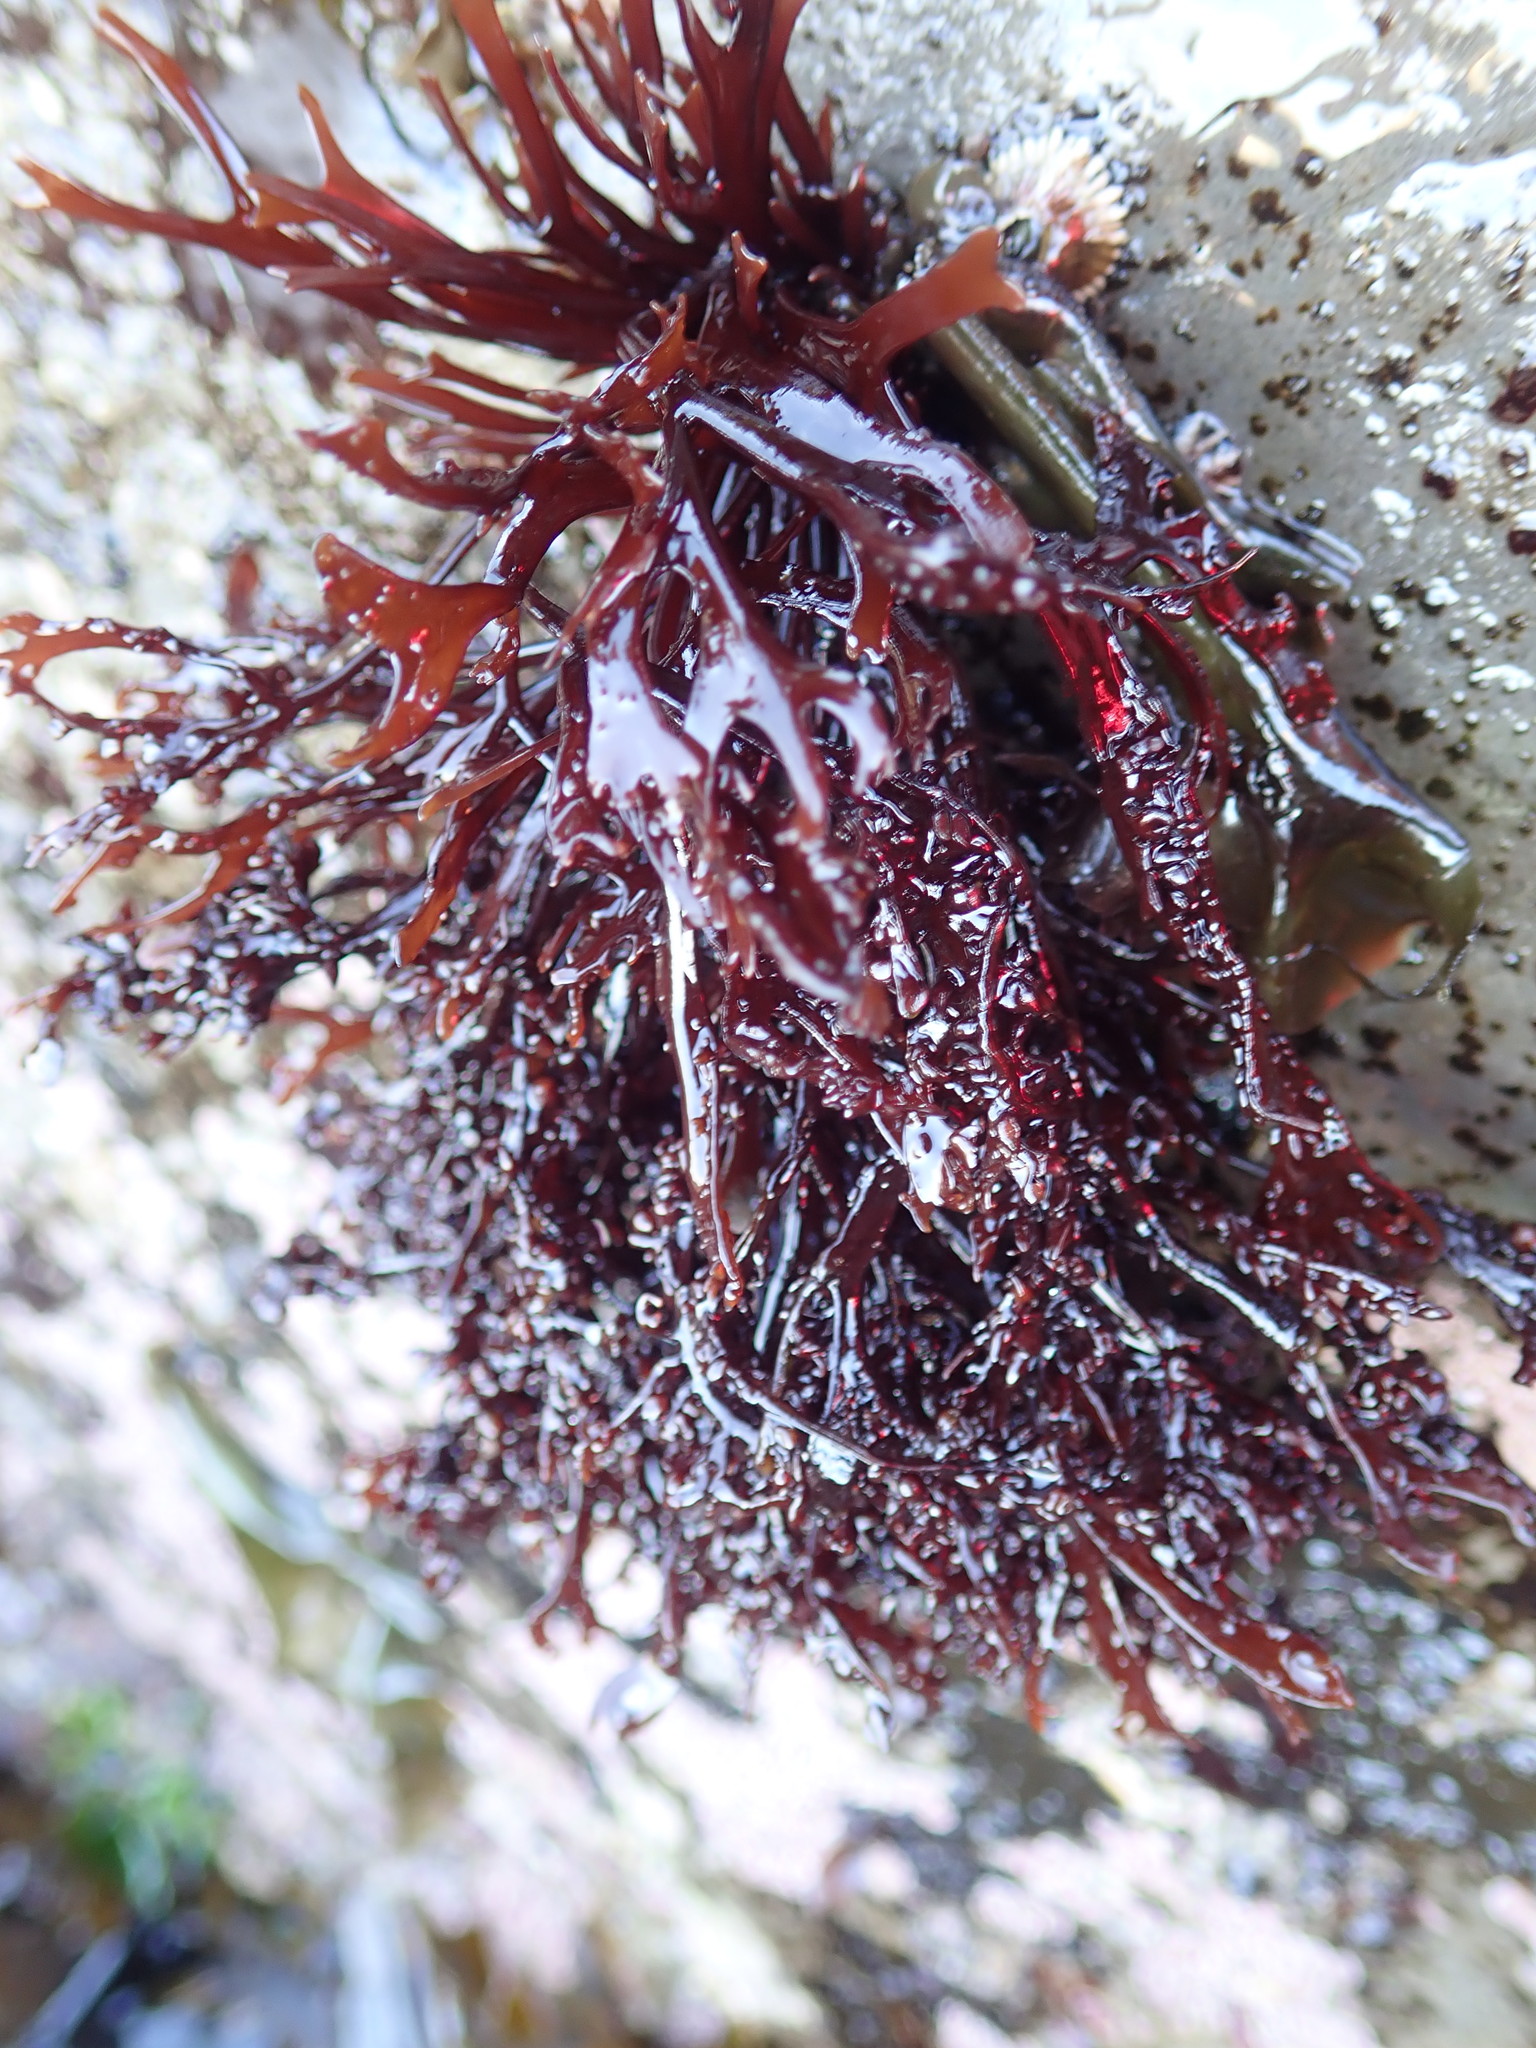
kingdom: Plantae
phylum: Rhodophyta
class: Florideophyceae
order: Gigartinales
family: Phyllophoraceae
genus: Mastocarpus
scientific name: Mastocarpus jardinii
